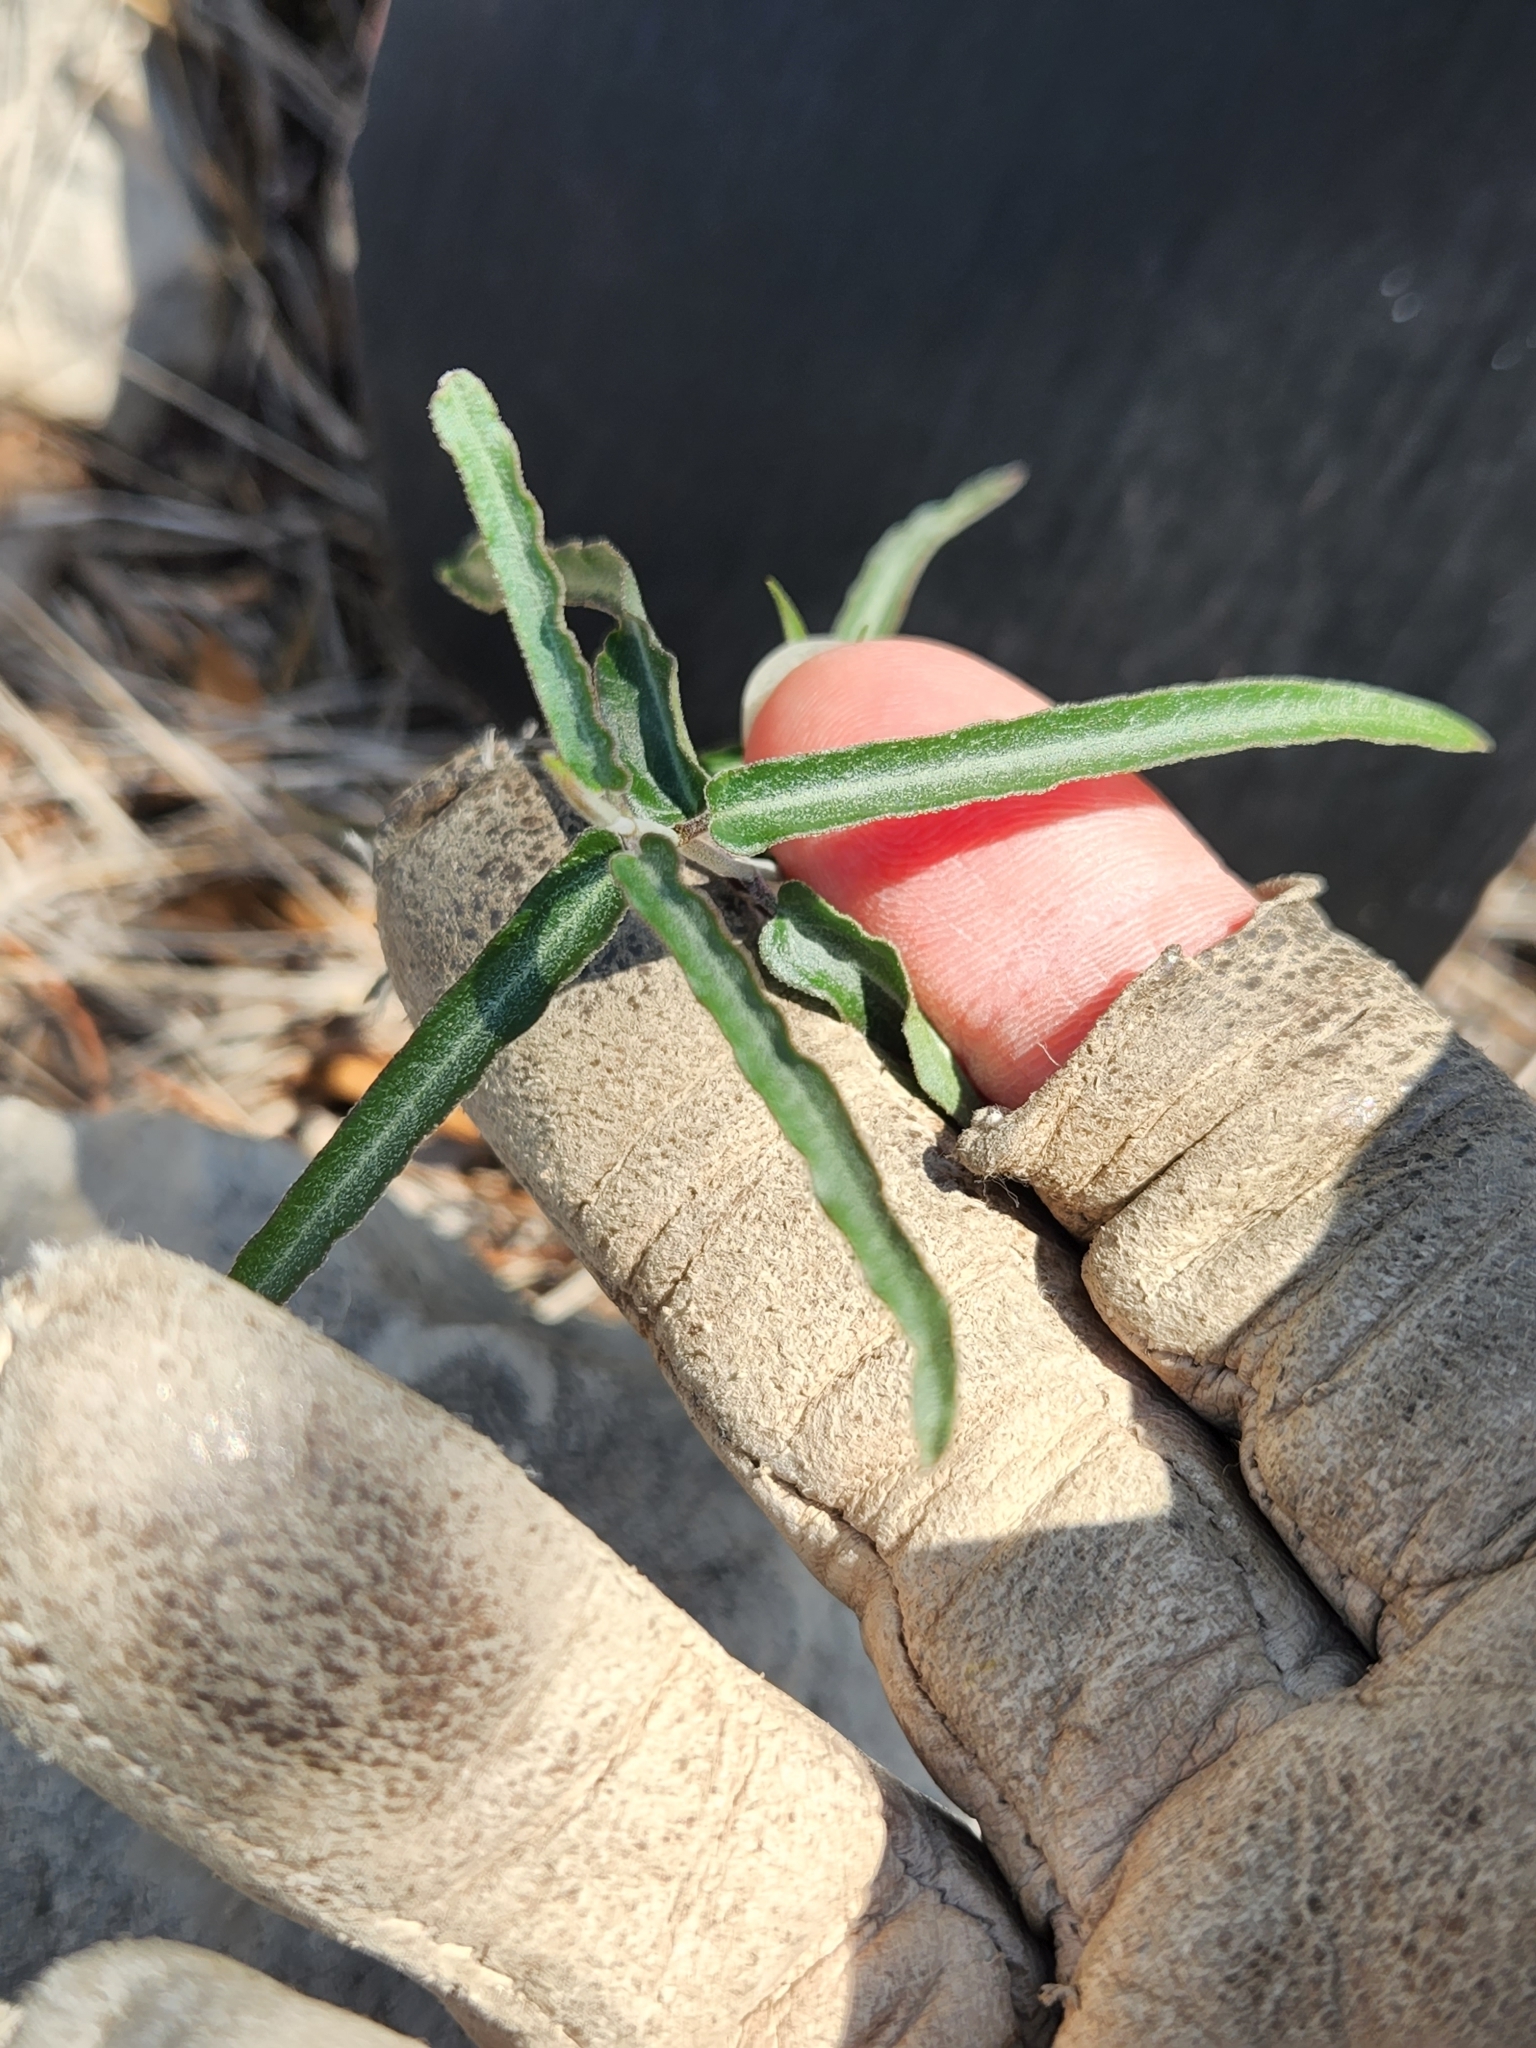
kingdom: Plantae
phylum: Tracheophyta
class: Magnoliopsida
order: Gentianales
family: Apocynaceae
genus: Funastrum
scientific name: Funastrum crispum
